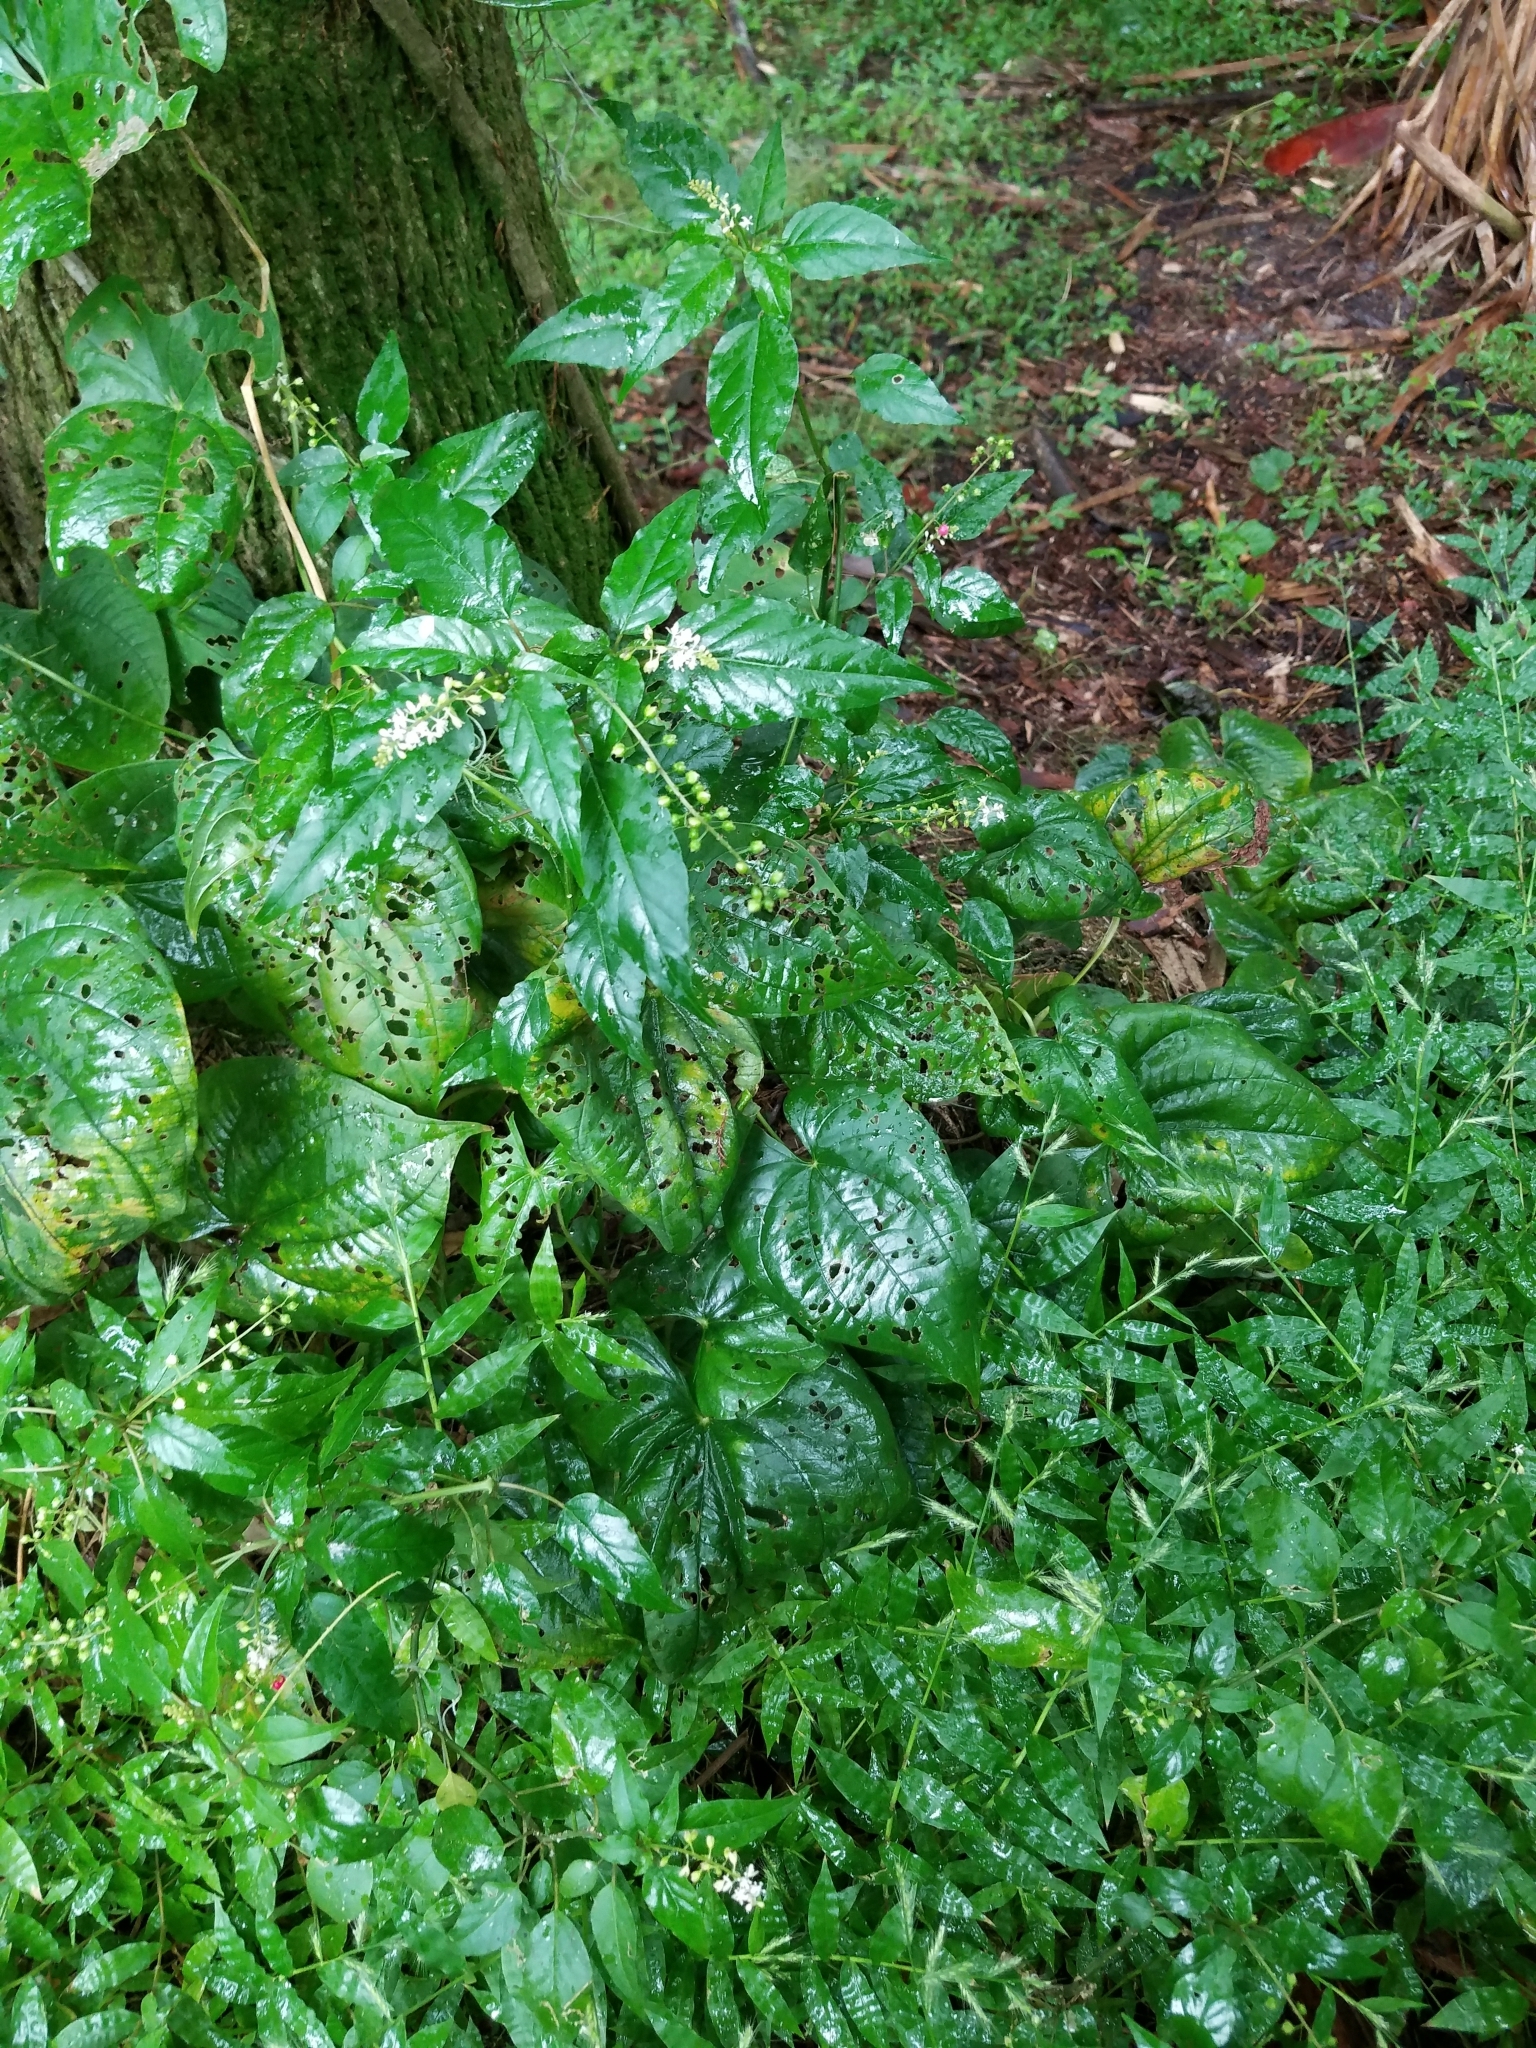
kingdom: Plantae
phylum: Tracheophyta
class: Magnoliopsida
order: Caryophyllales
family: Phytolaccaceae
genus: Rivina
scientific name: Rivina humilis
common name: Rougeplant
